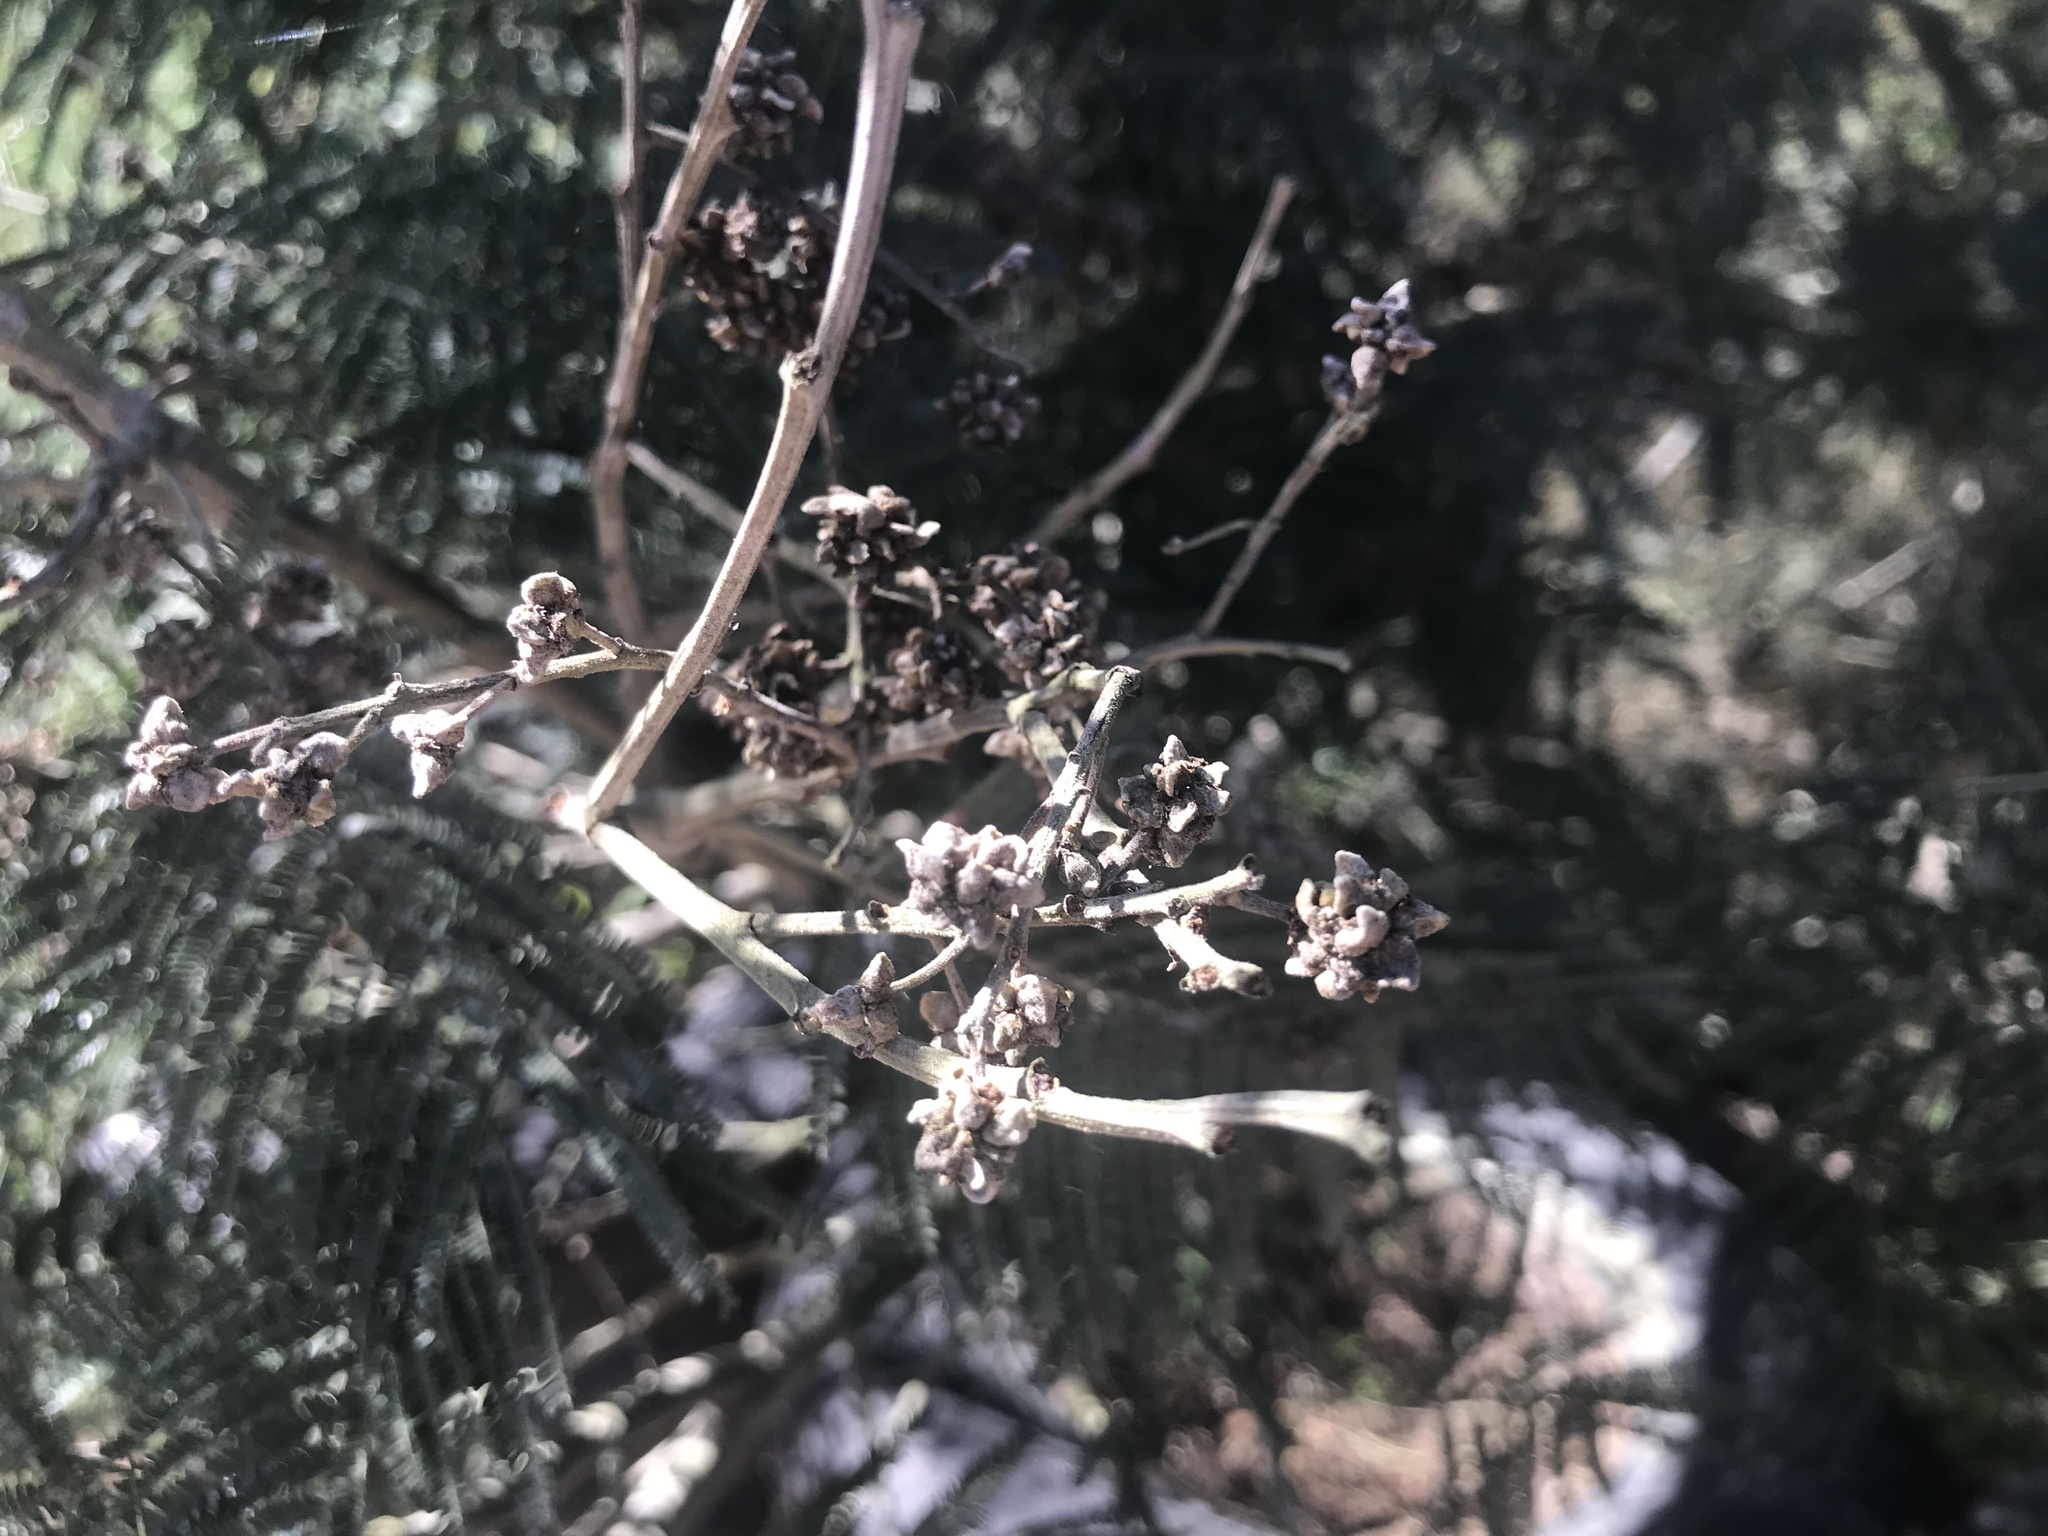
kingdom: Animalia
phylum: Arthropoda
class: Insecta
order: Diptera
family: Cecidomyiidae
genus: Dasineura
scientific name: Dasineura rubiformis
